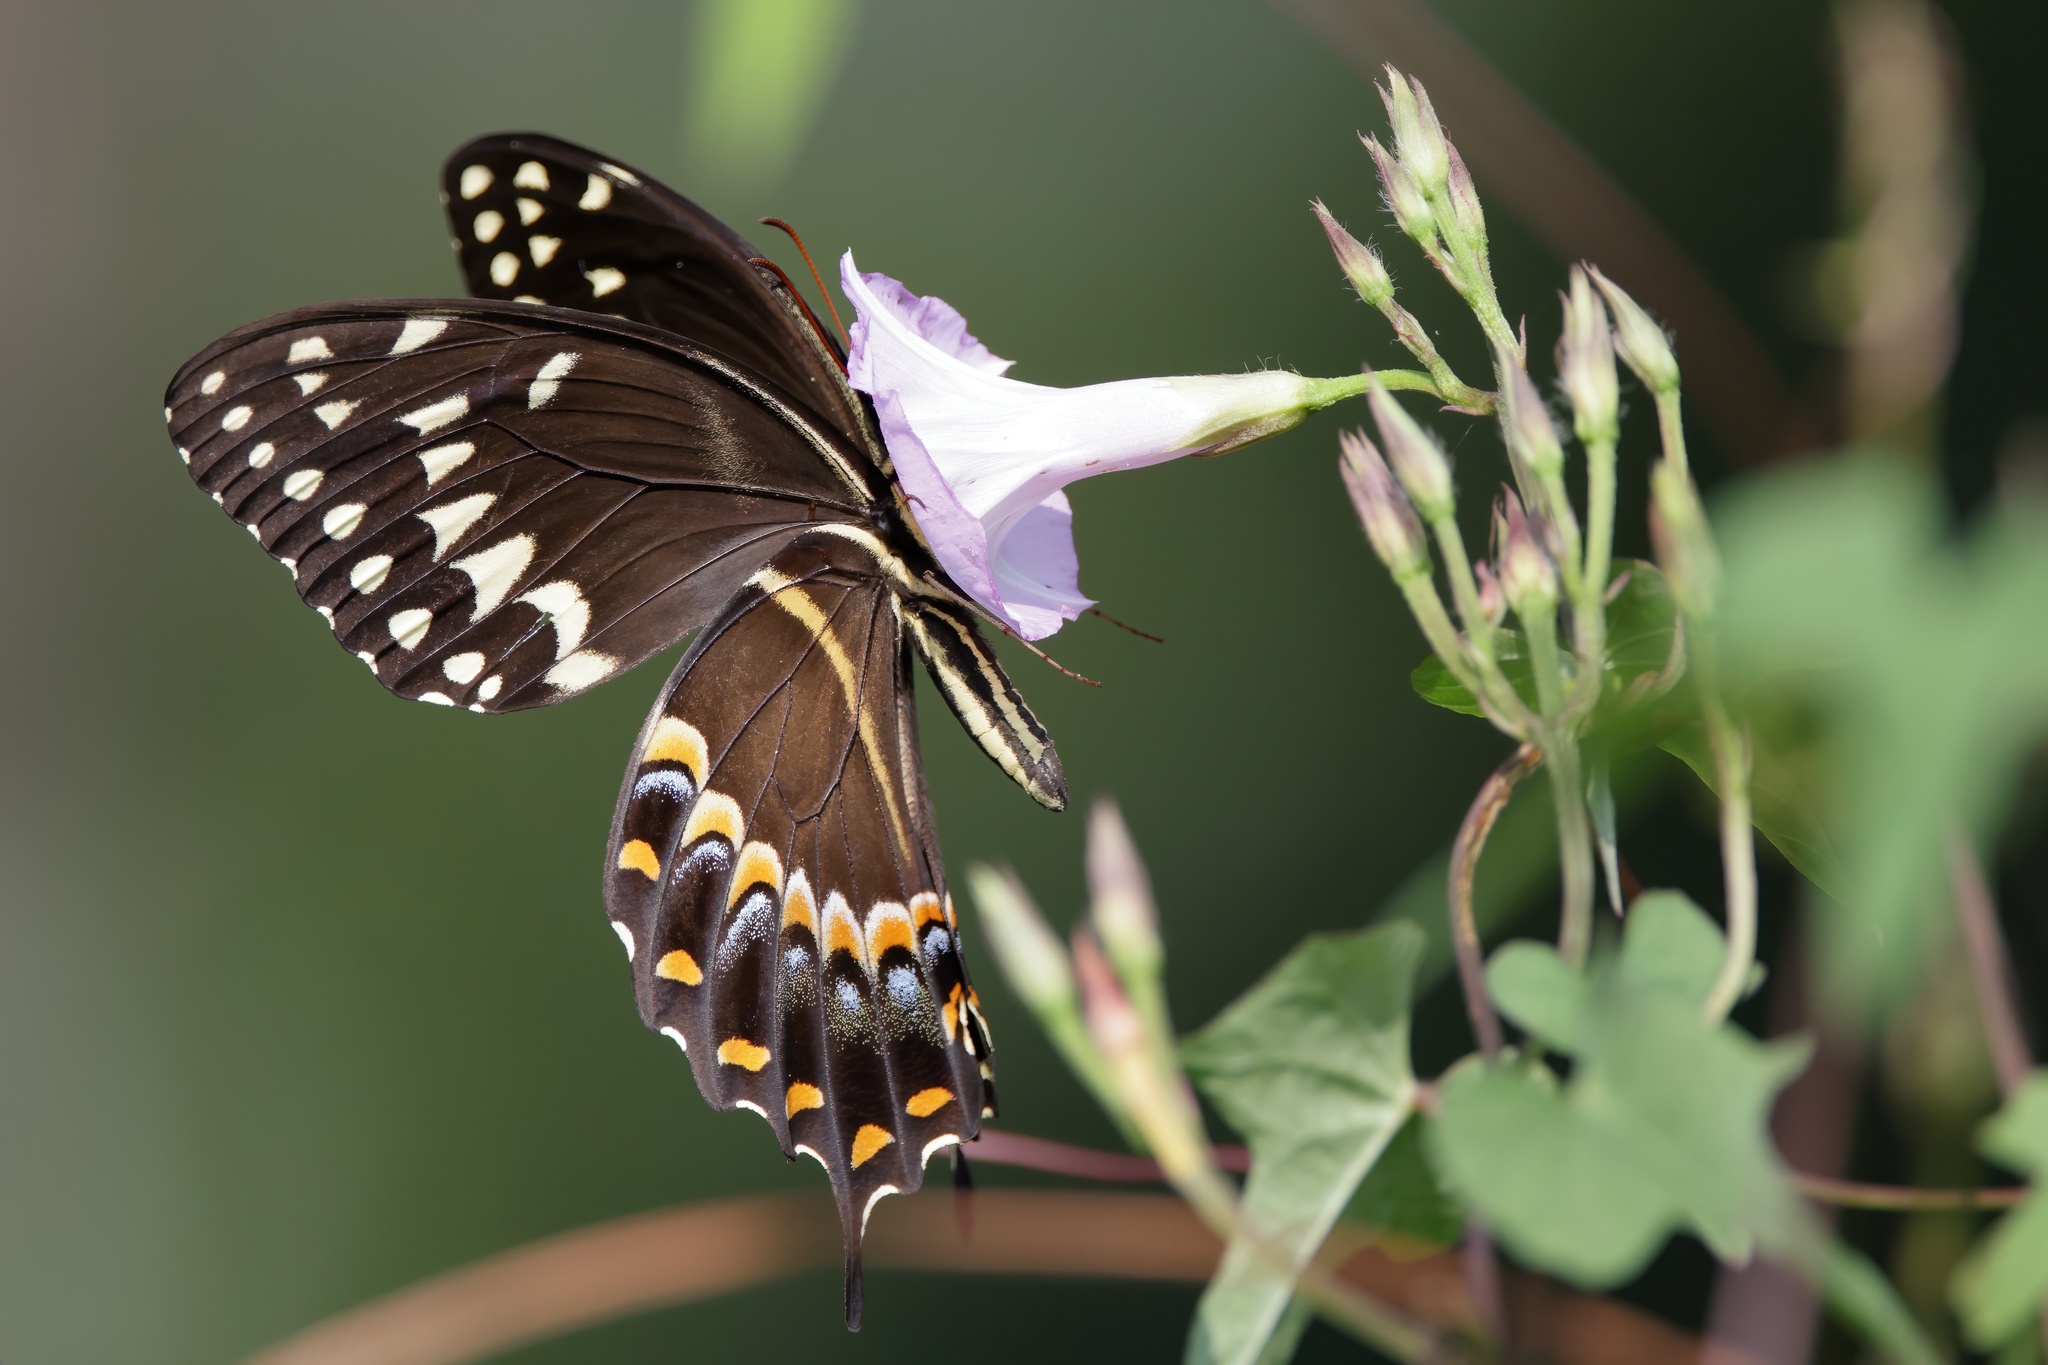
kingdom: Animalia
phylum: Arthropoda
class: Insecta
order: Lepidoptera
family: Papilionidae
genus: Papilio
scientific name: Papilio palamedes
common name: Palamedes swallowtail
